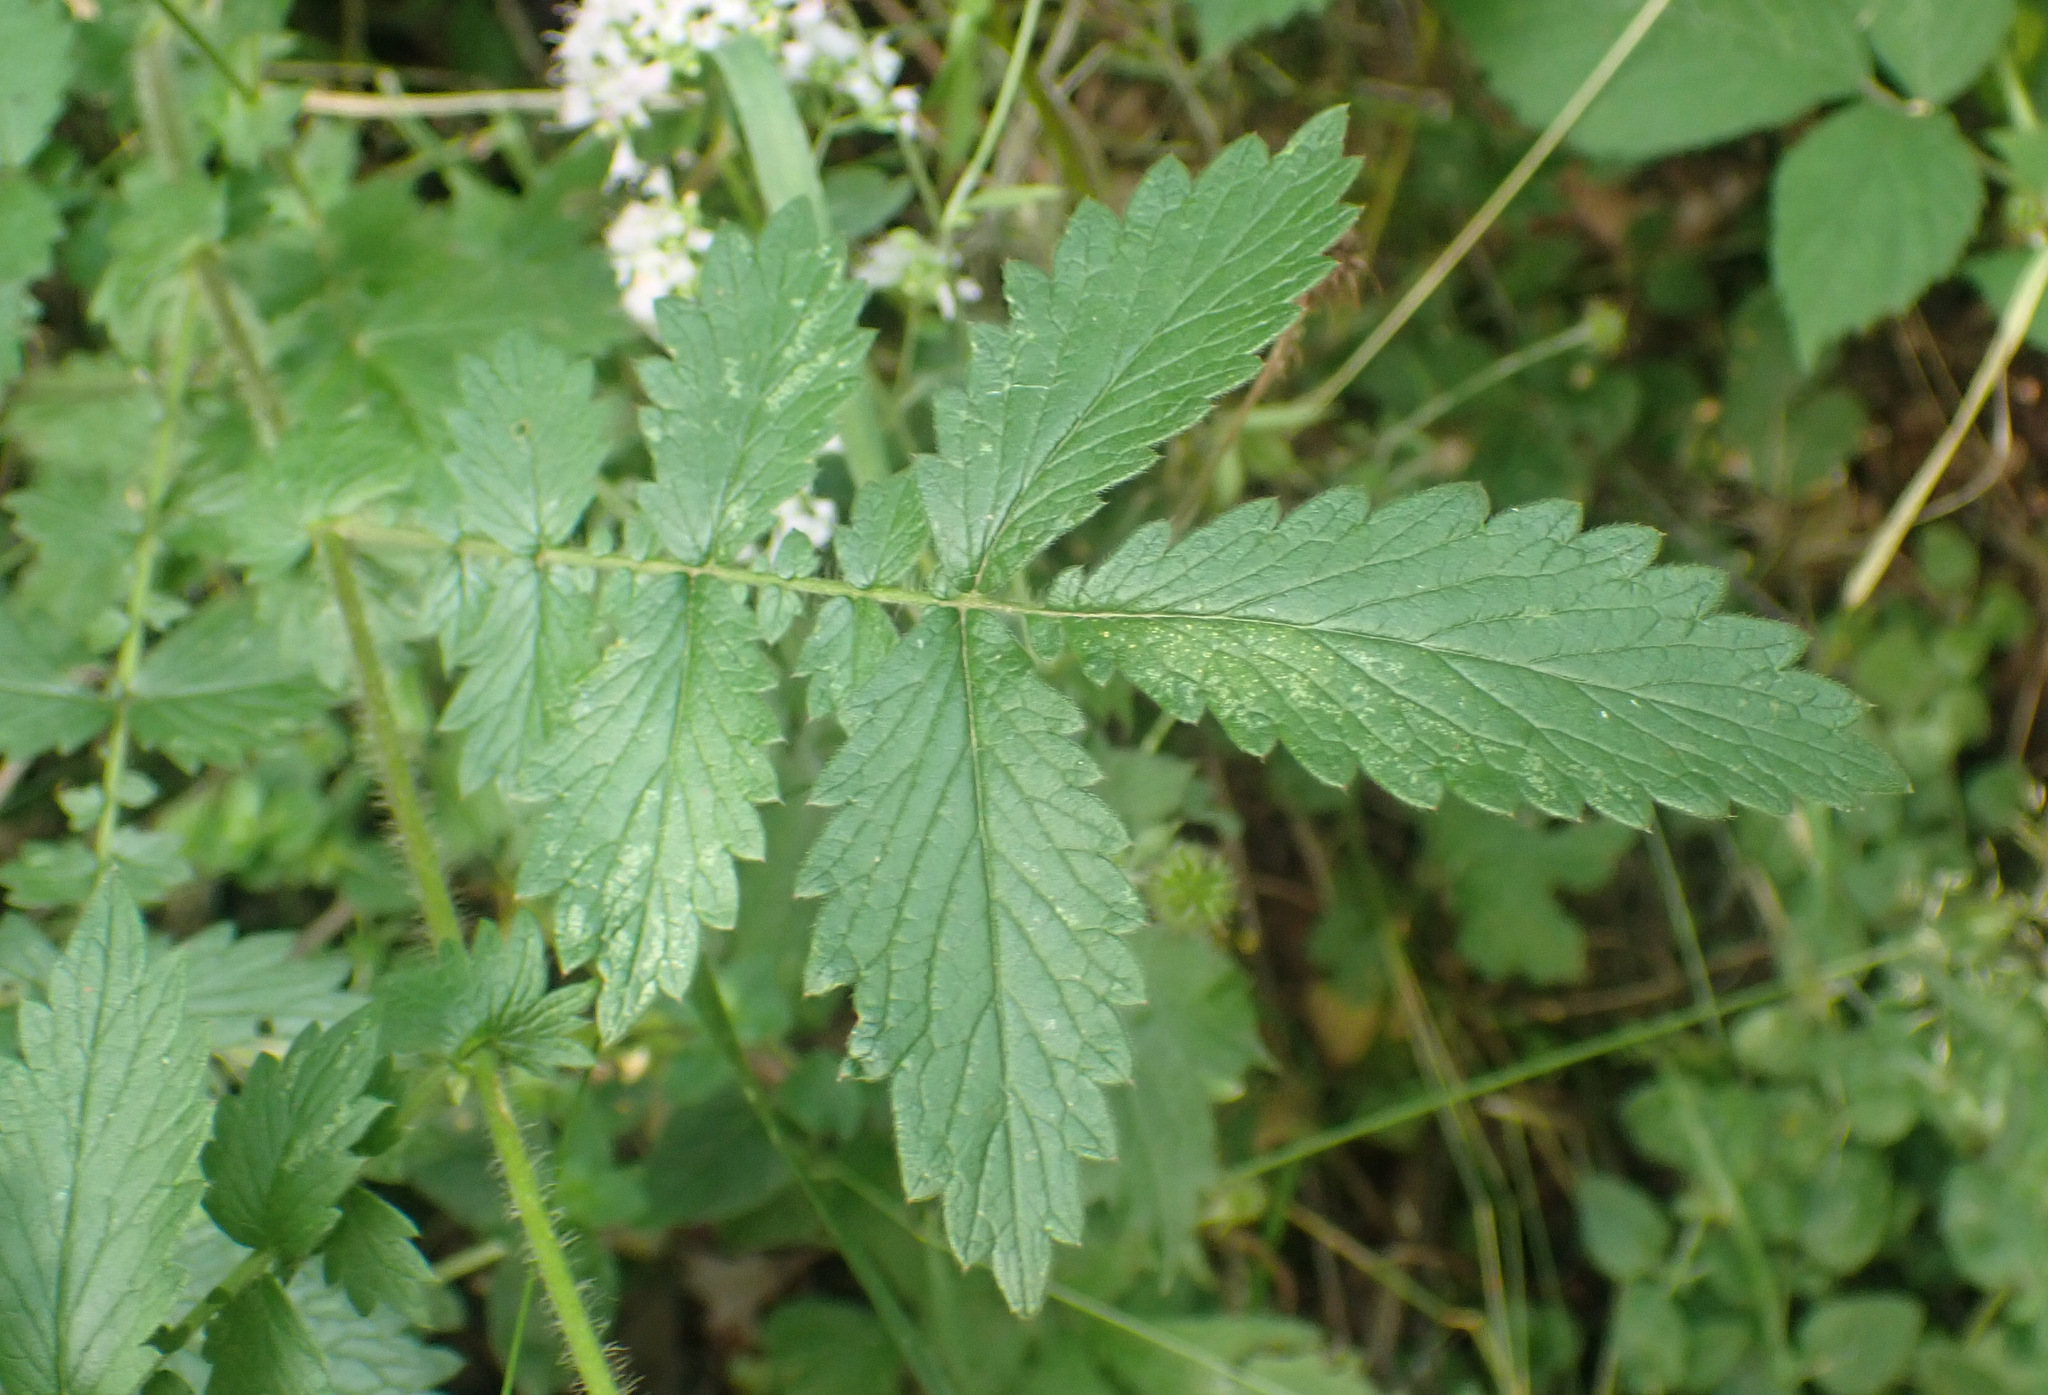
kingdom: Plantae
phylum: Tracheophyta
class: Magnoliopsida
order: Rosales
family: Rosaceae
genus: Agrimonia
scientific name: Agrimonia eupatoria
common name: Agrimony
